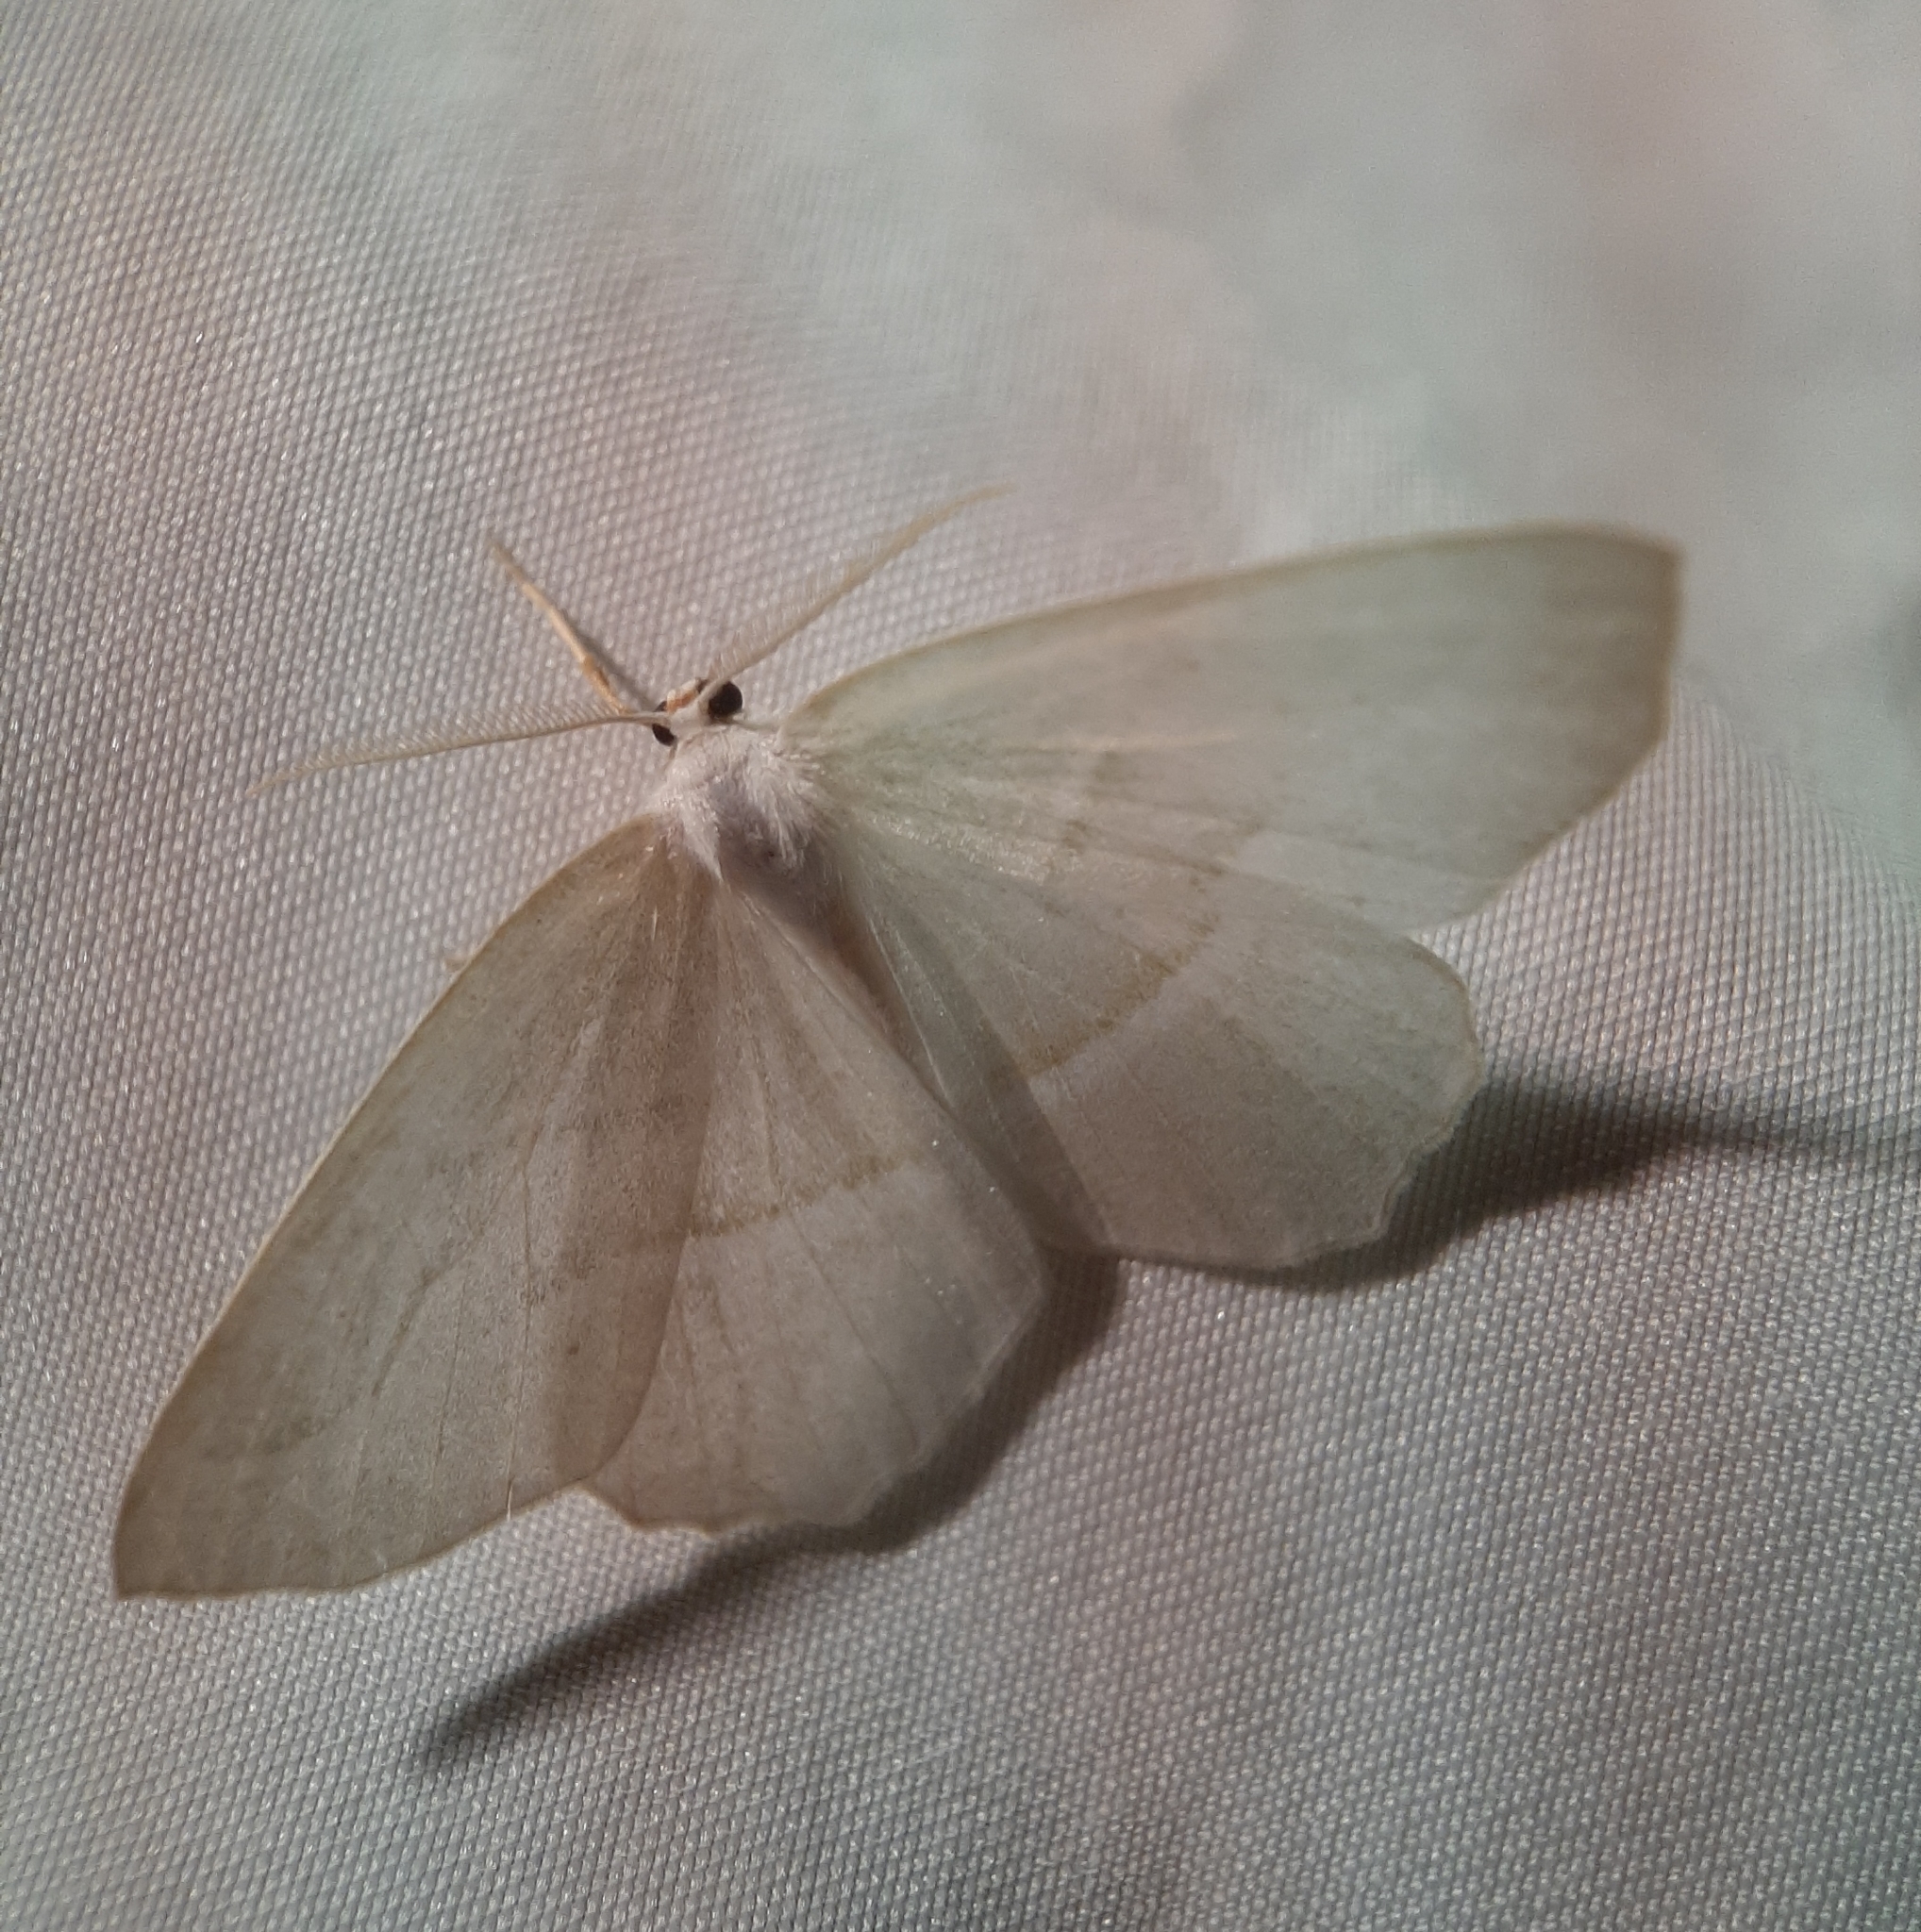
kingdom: Animalia
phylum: Arthropoda
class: Insecta
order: Lepidoptera
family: Geometridae
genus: Campaea
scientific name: Campaea perlata
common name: Fringed looper
